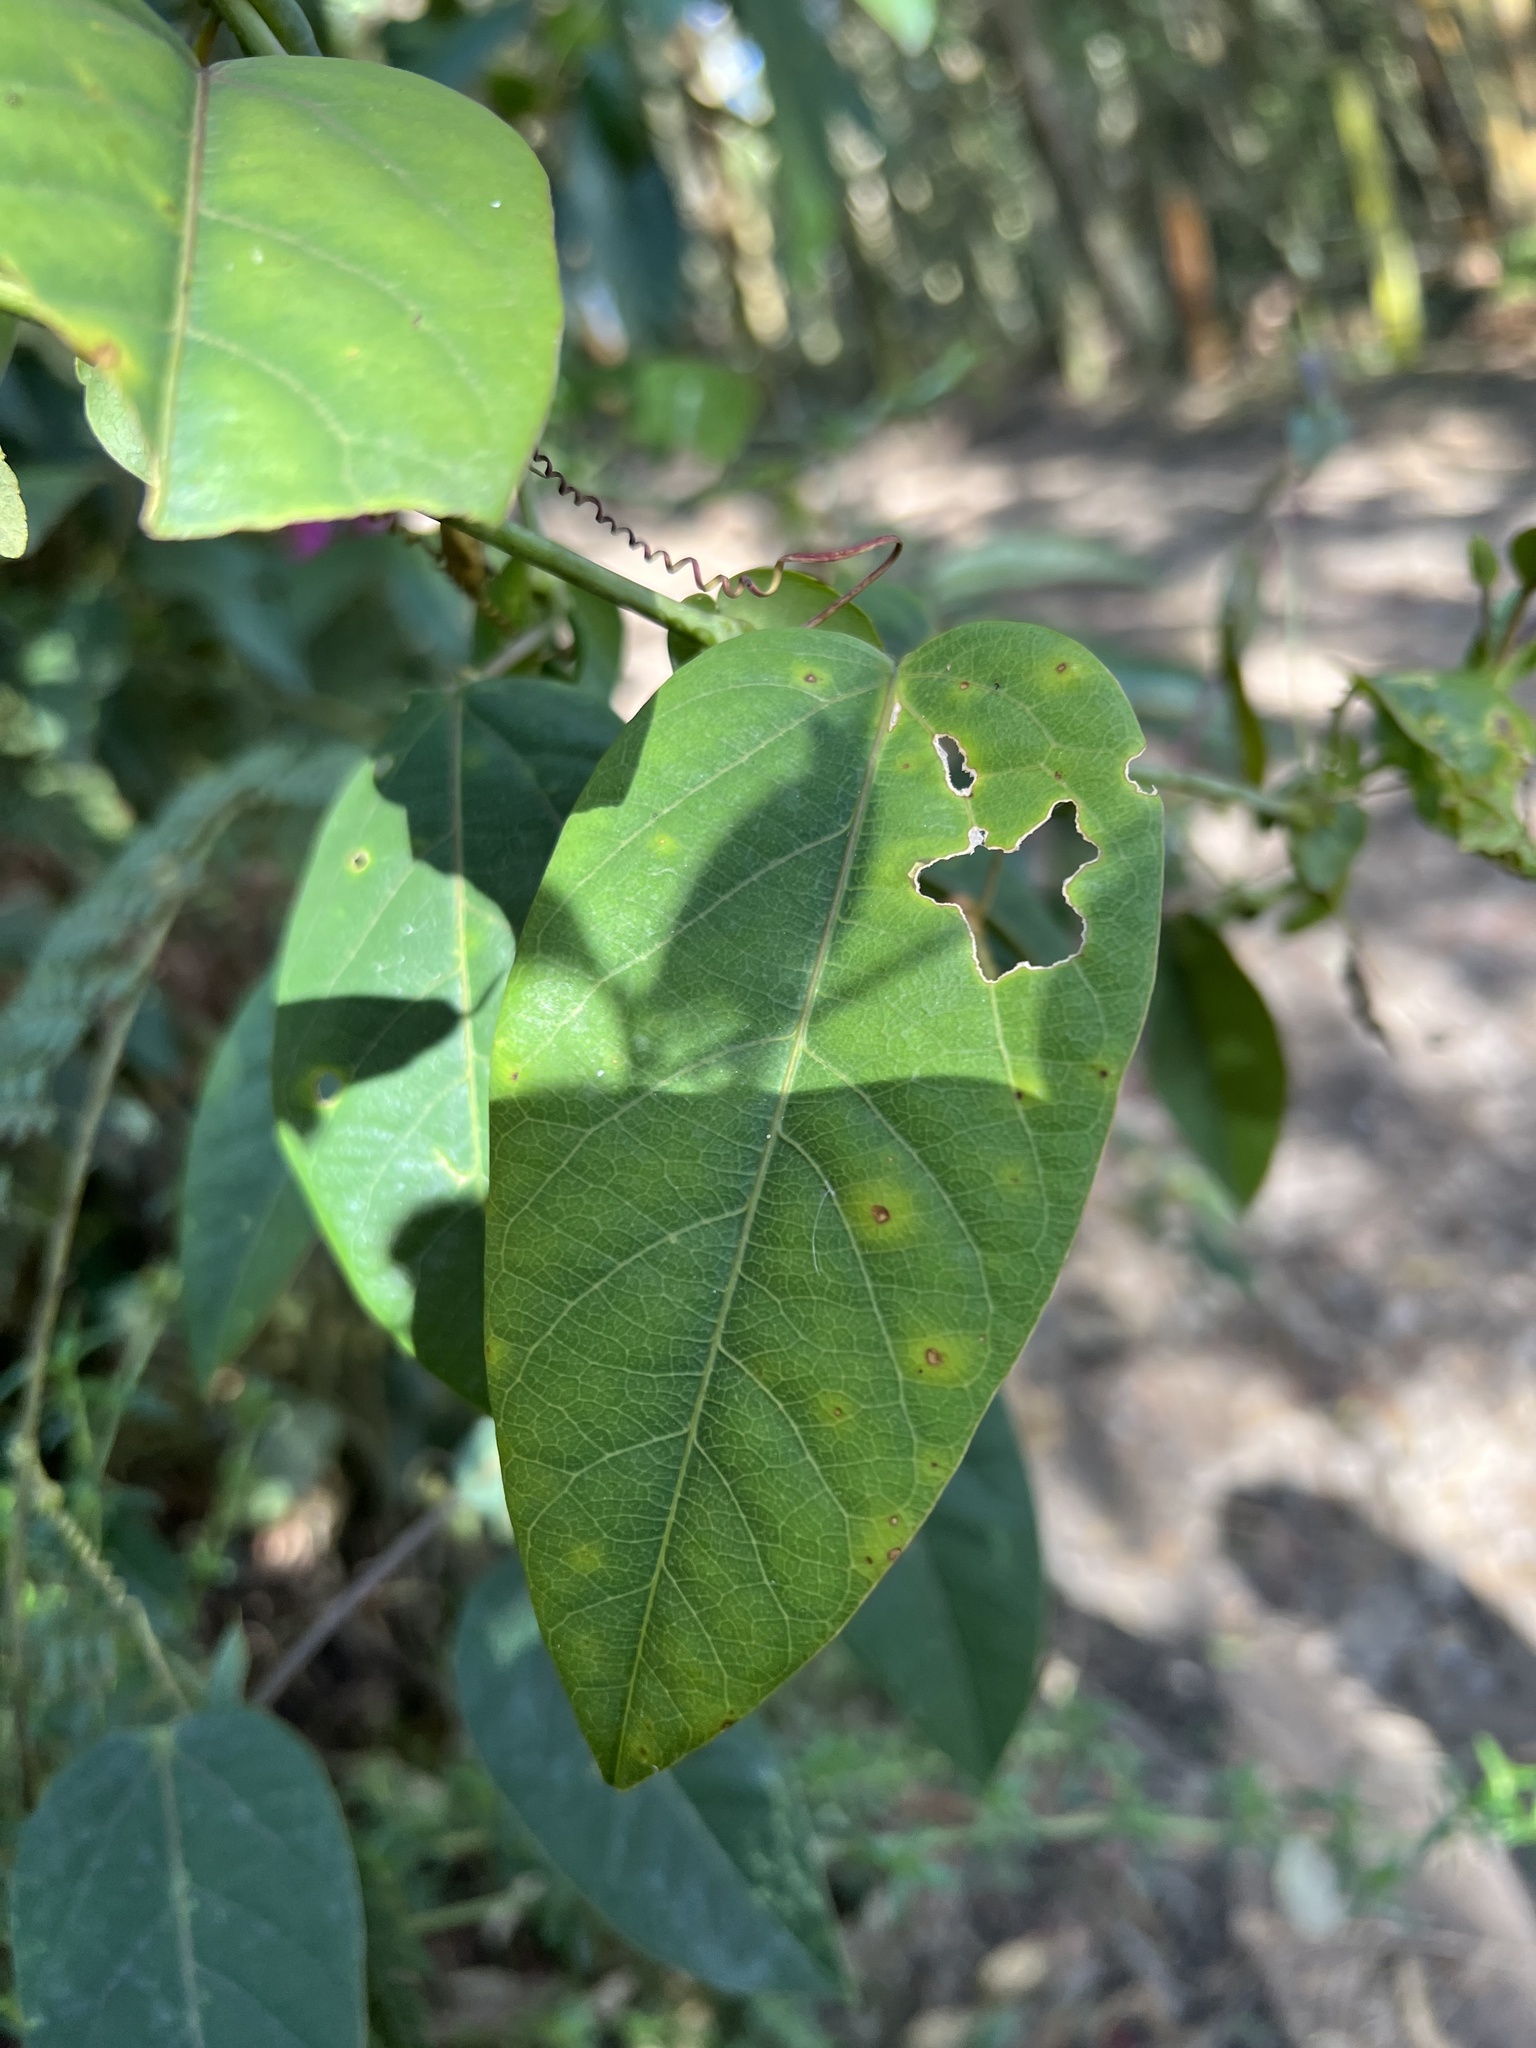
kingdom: Plantae
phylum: Tracheophyta
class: Magnoliopsida
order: Malpighiales
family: Passifloraceae
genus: Passiflora
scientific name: Passiflora longipes
